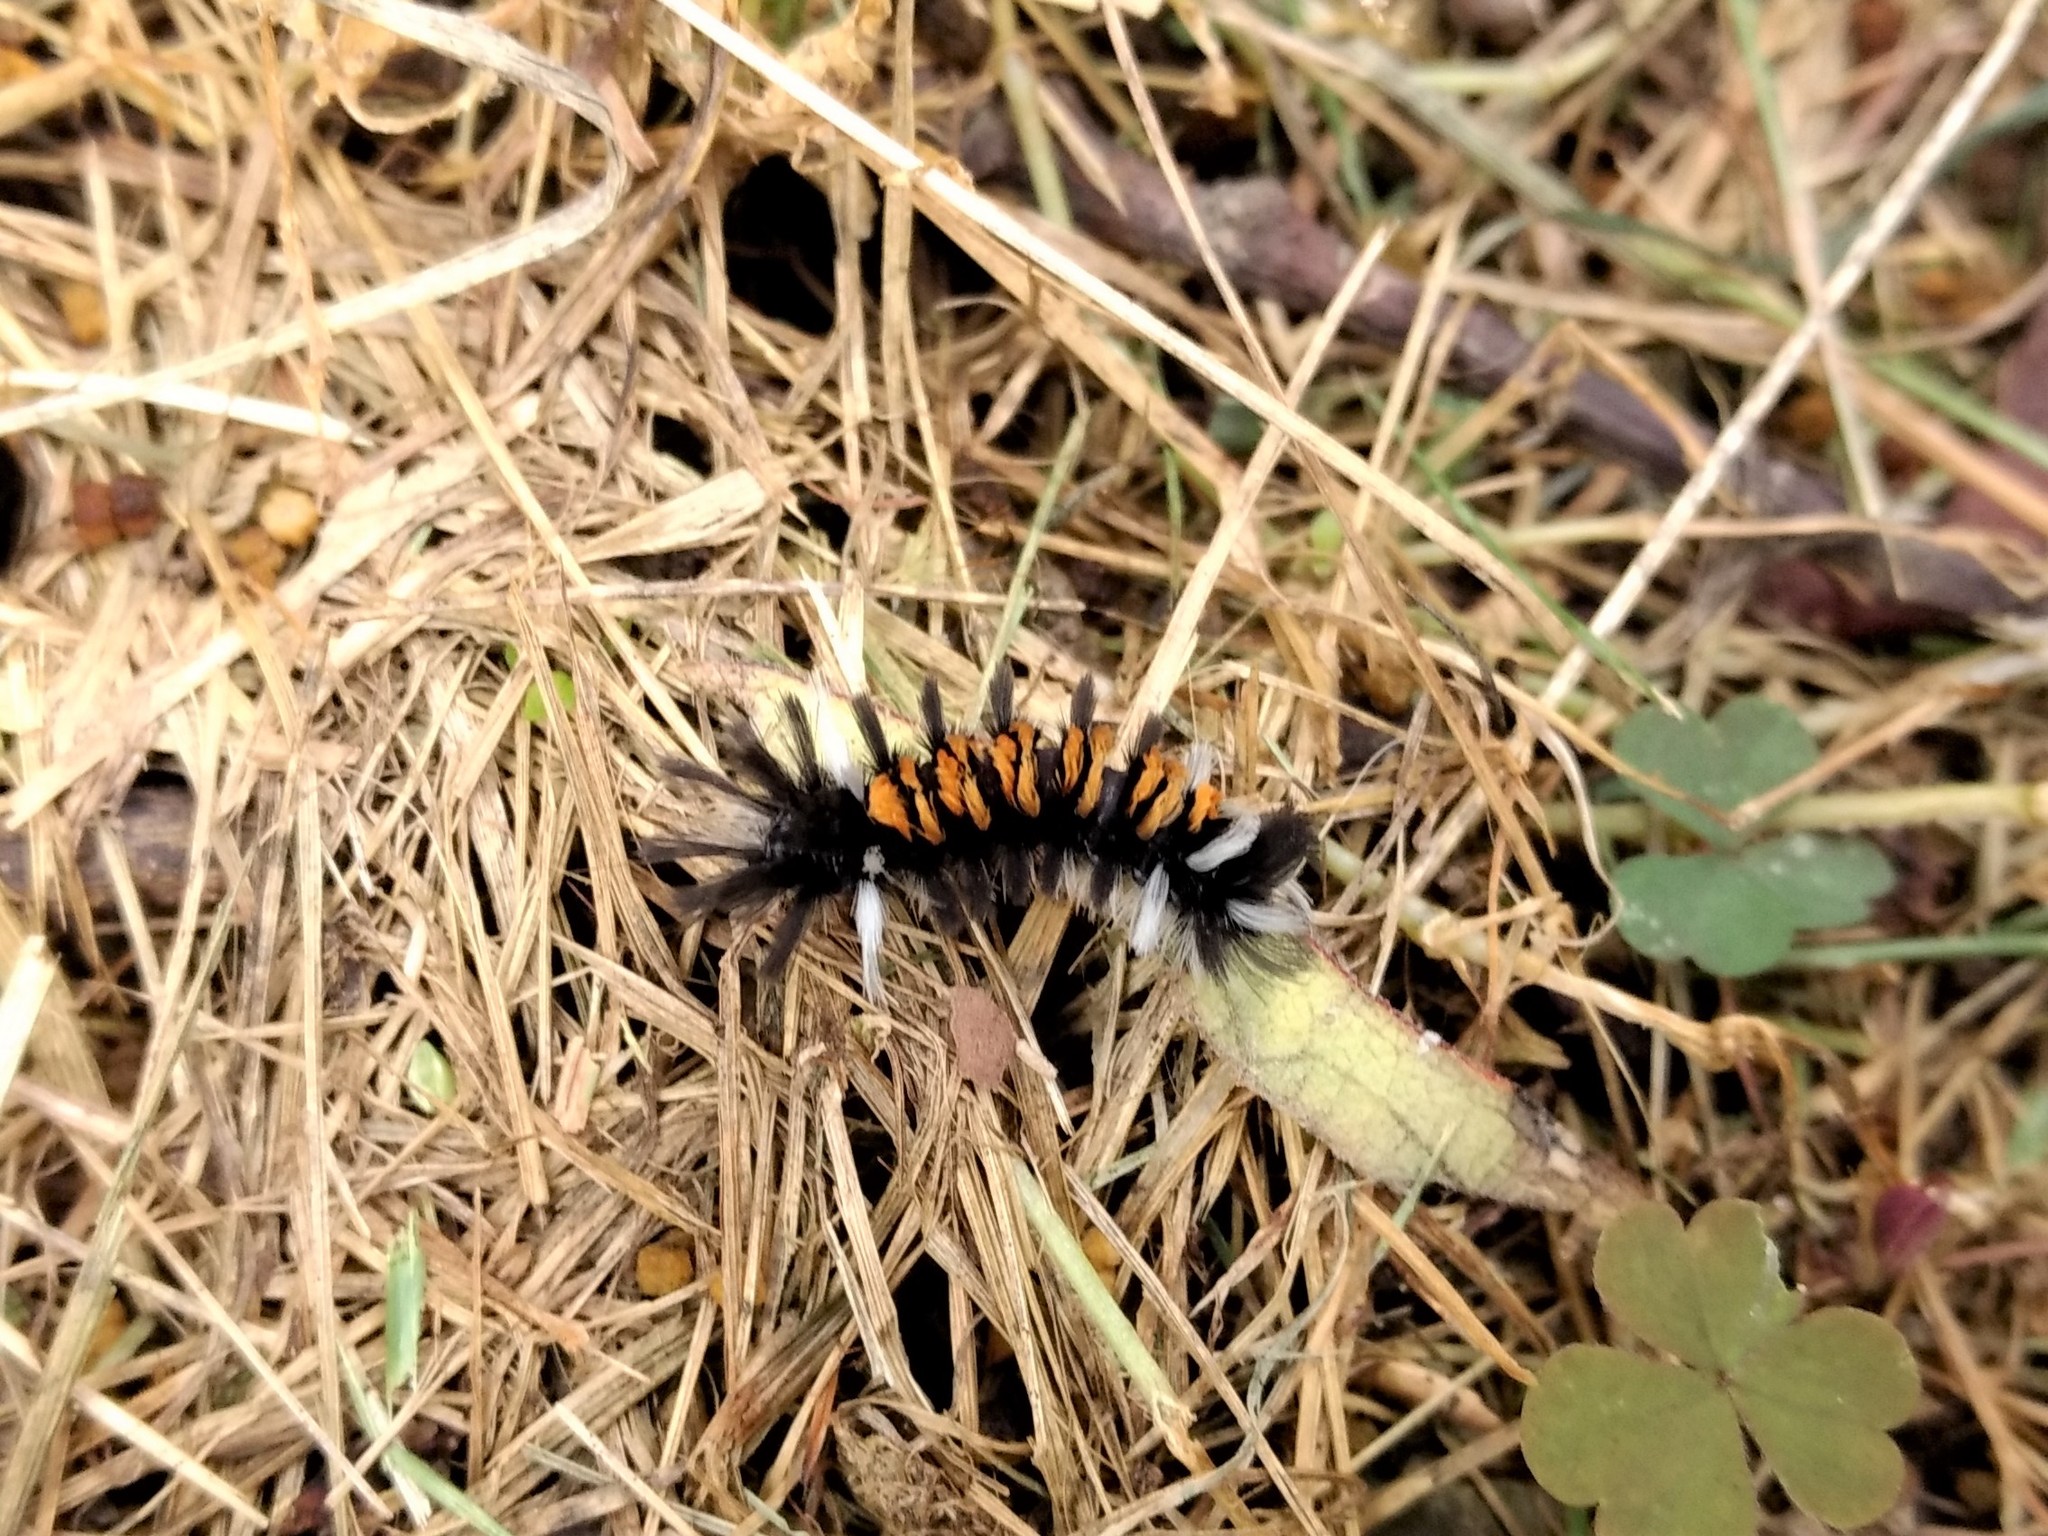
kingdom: Animalia
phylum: Arthropoda
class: Insecta
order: Lepidoptera
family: Erebidae
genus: Euchaetes
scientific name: Euchaetes egle
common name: Milkweed tussock moth
